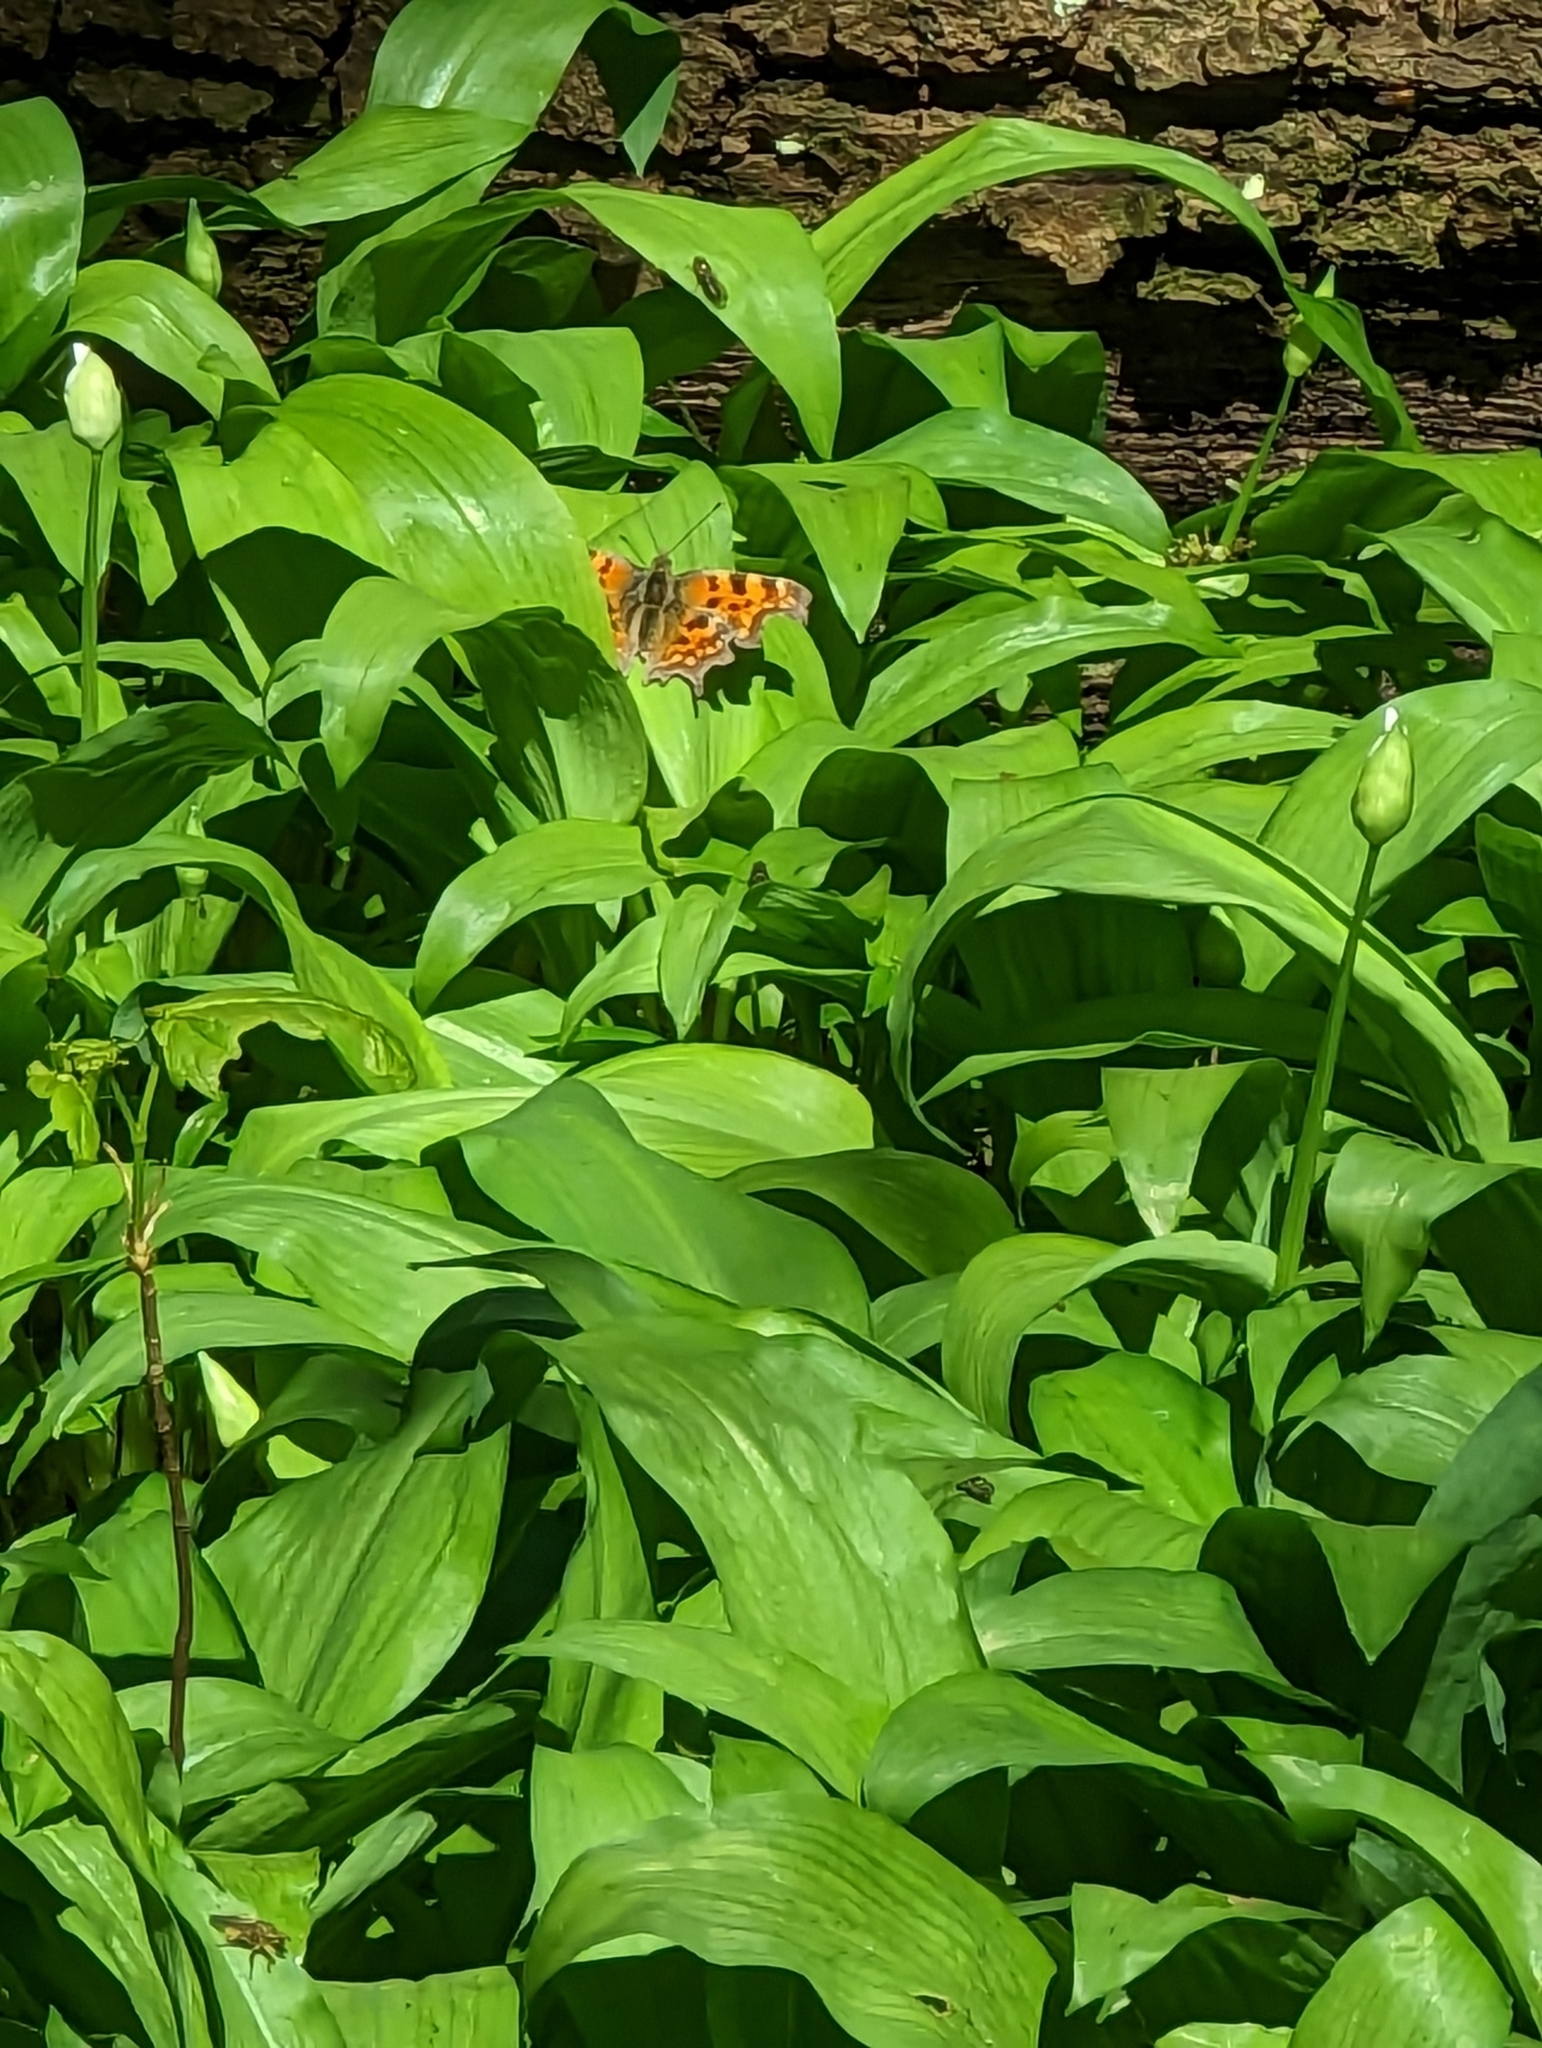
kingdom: Animalia
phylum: Arthropoda
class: Insecta
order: Lepidoptera
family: Nymphalidae
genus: Polygonia
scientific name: Polygonia c-album
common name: Comma
